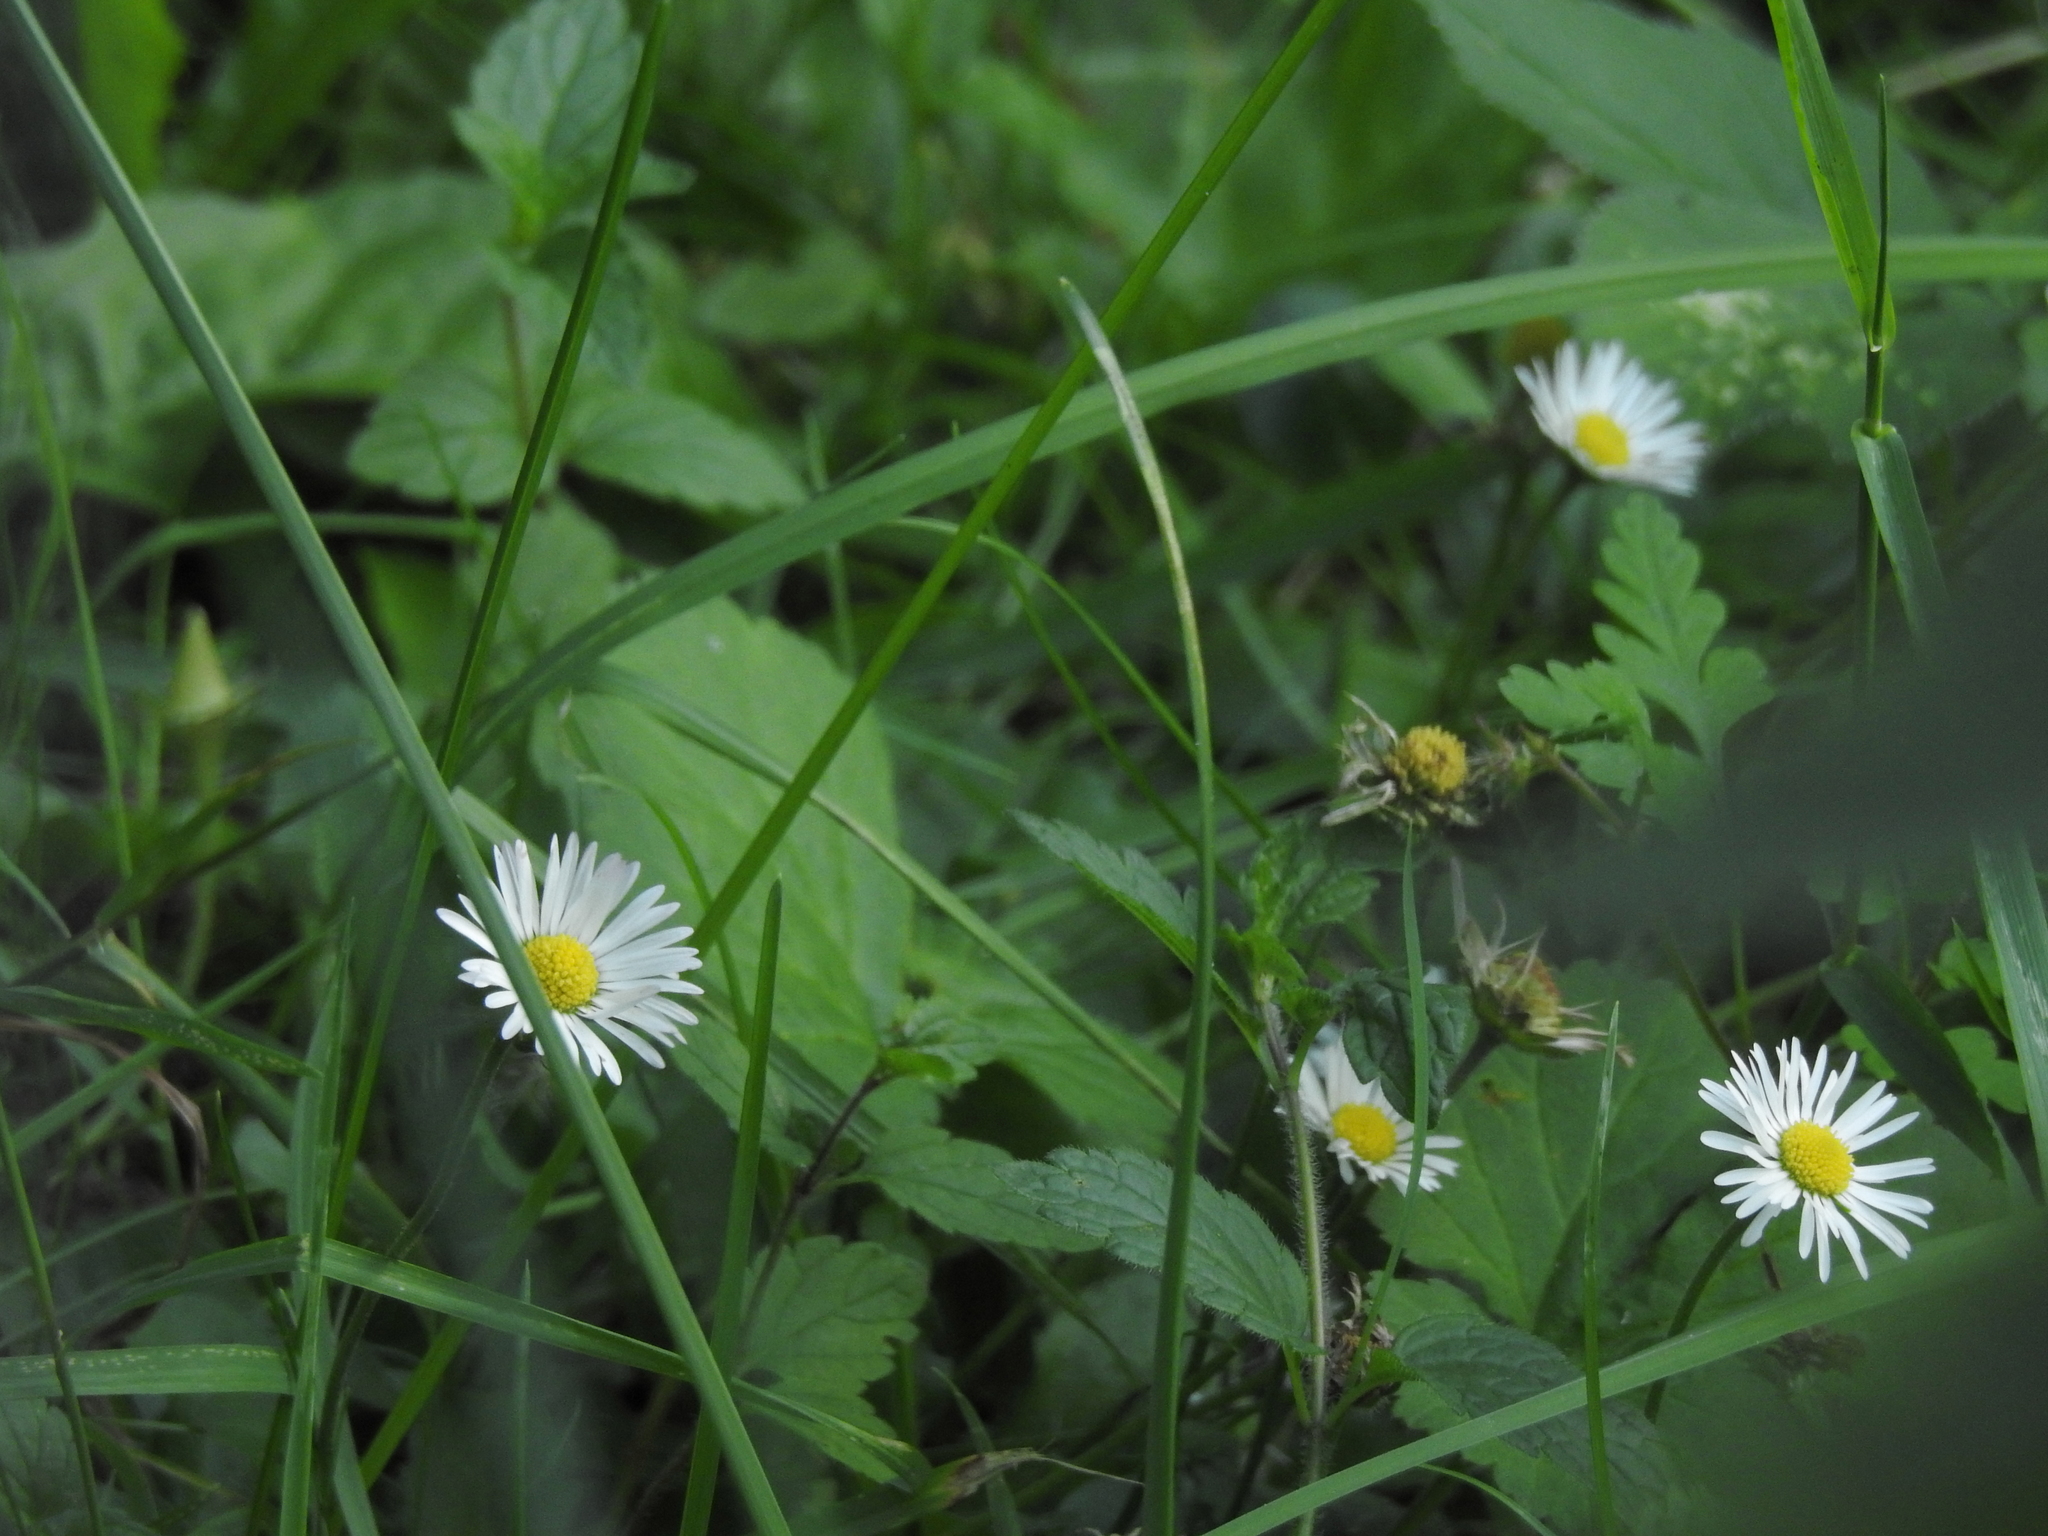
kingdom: Plantae
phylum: Tracheophyta
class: Magnoliopsida
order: Asterales
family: Asteraceae
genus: Bellis
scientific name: Bellis perennis
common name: Lawndaisy
